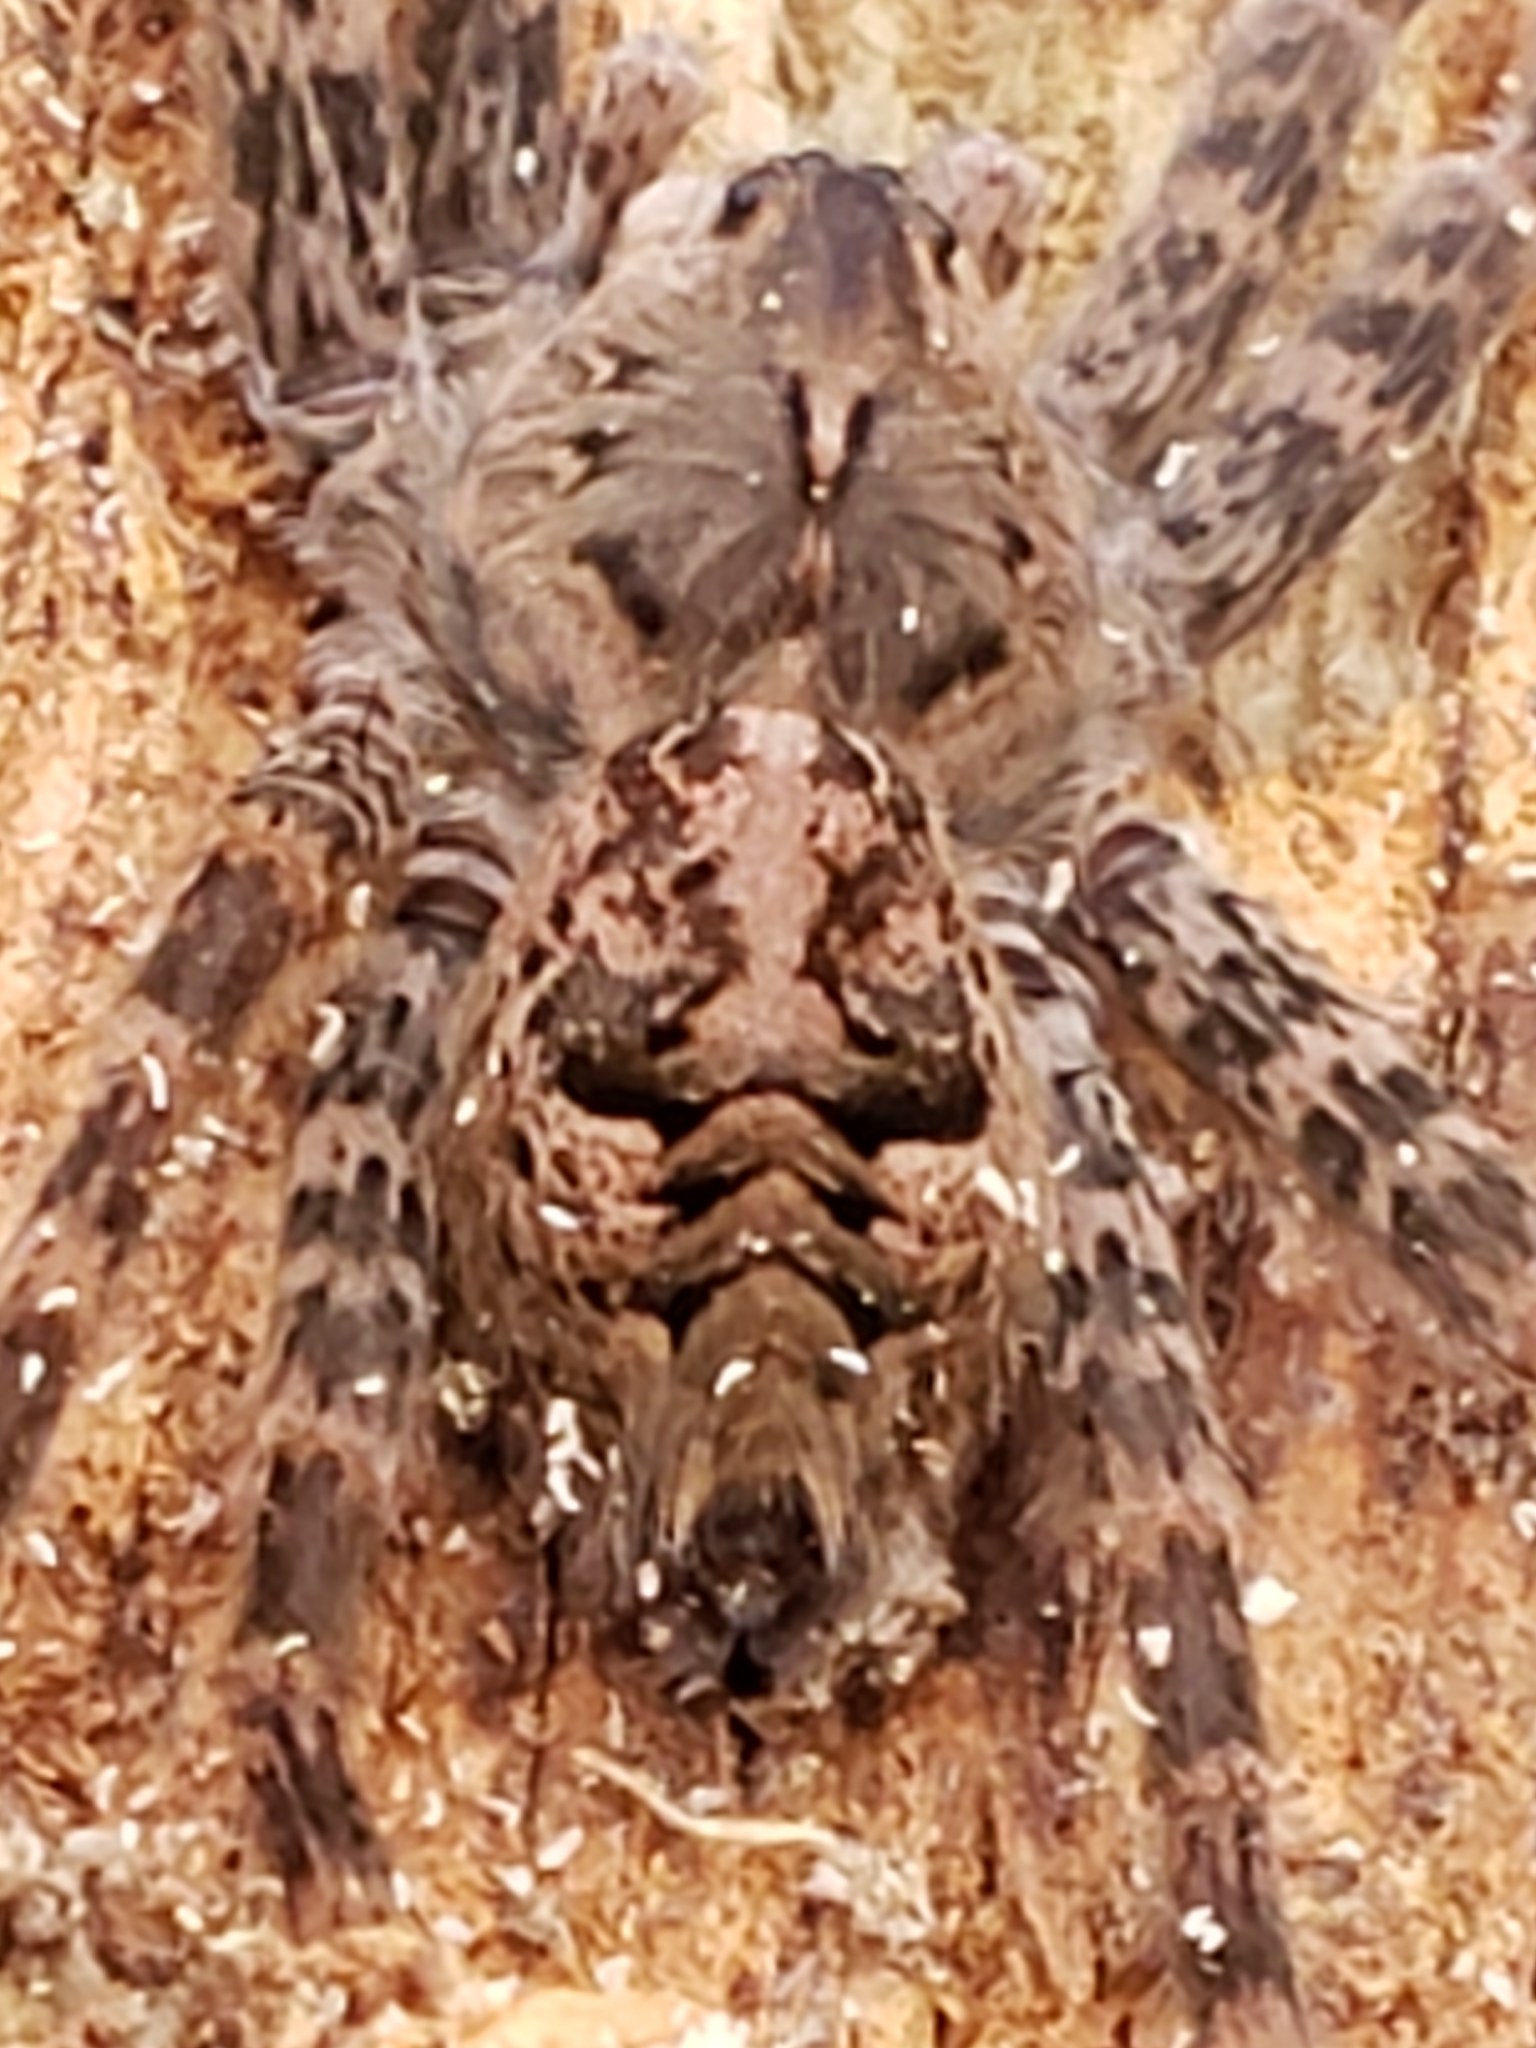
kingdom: Animalia
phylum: Arthropoda
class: Arachnida
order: Araneae
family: Pisauridae
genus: Dolomedes
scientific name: Dolomedes tenebrosus
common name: Dark fishing spider
